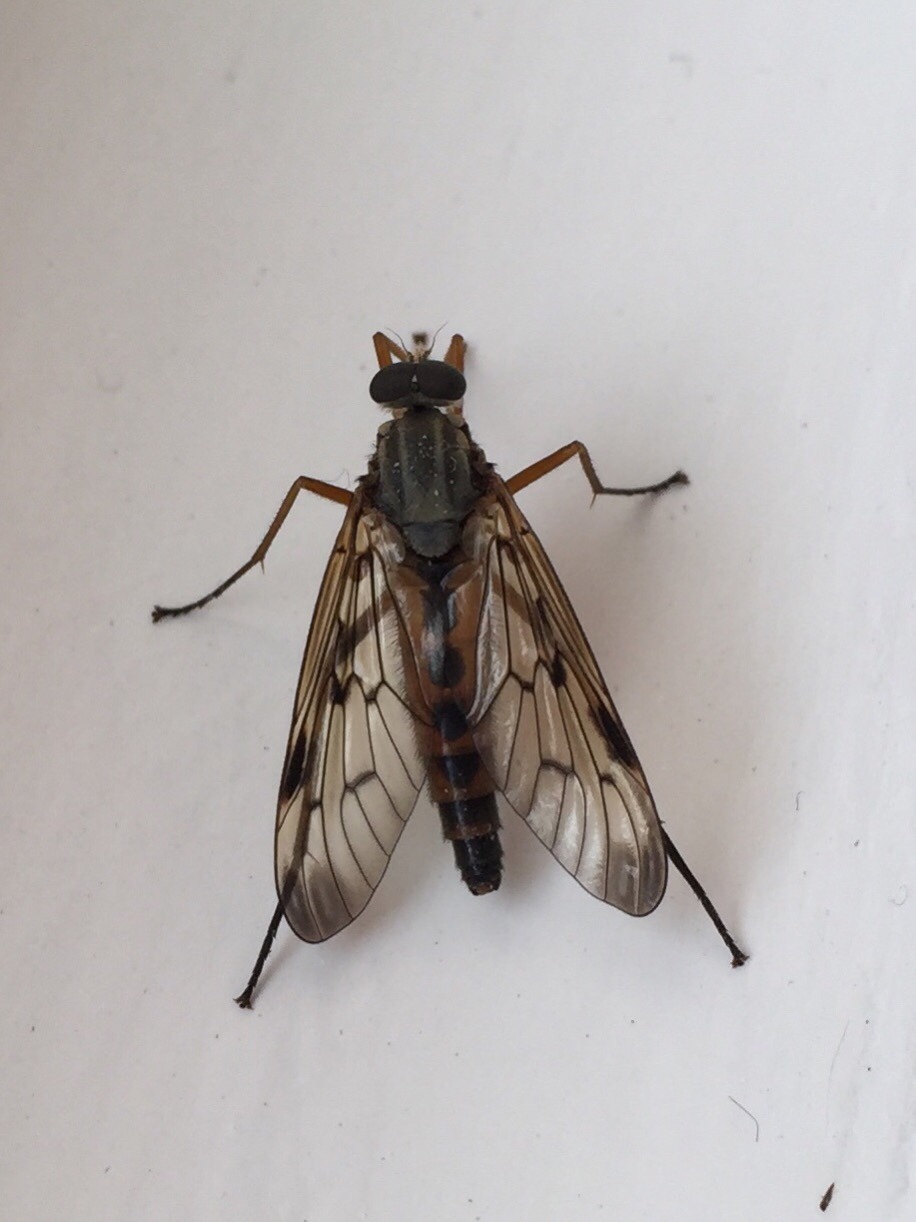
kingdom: Animalia
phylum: Arthropoda
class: Insecta
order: Diptera
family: Rhagionidae
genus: Rhagio
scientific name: Rhagio scolopacea
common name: Downlooker snipefly
